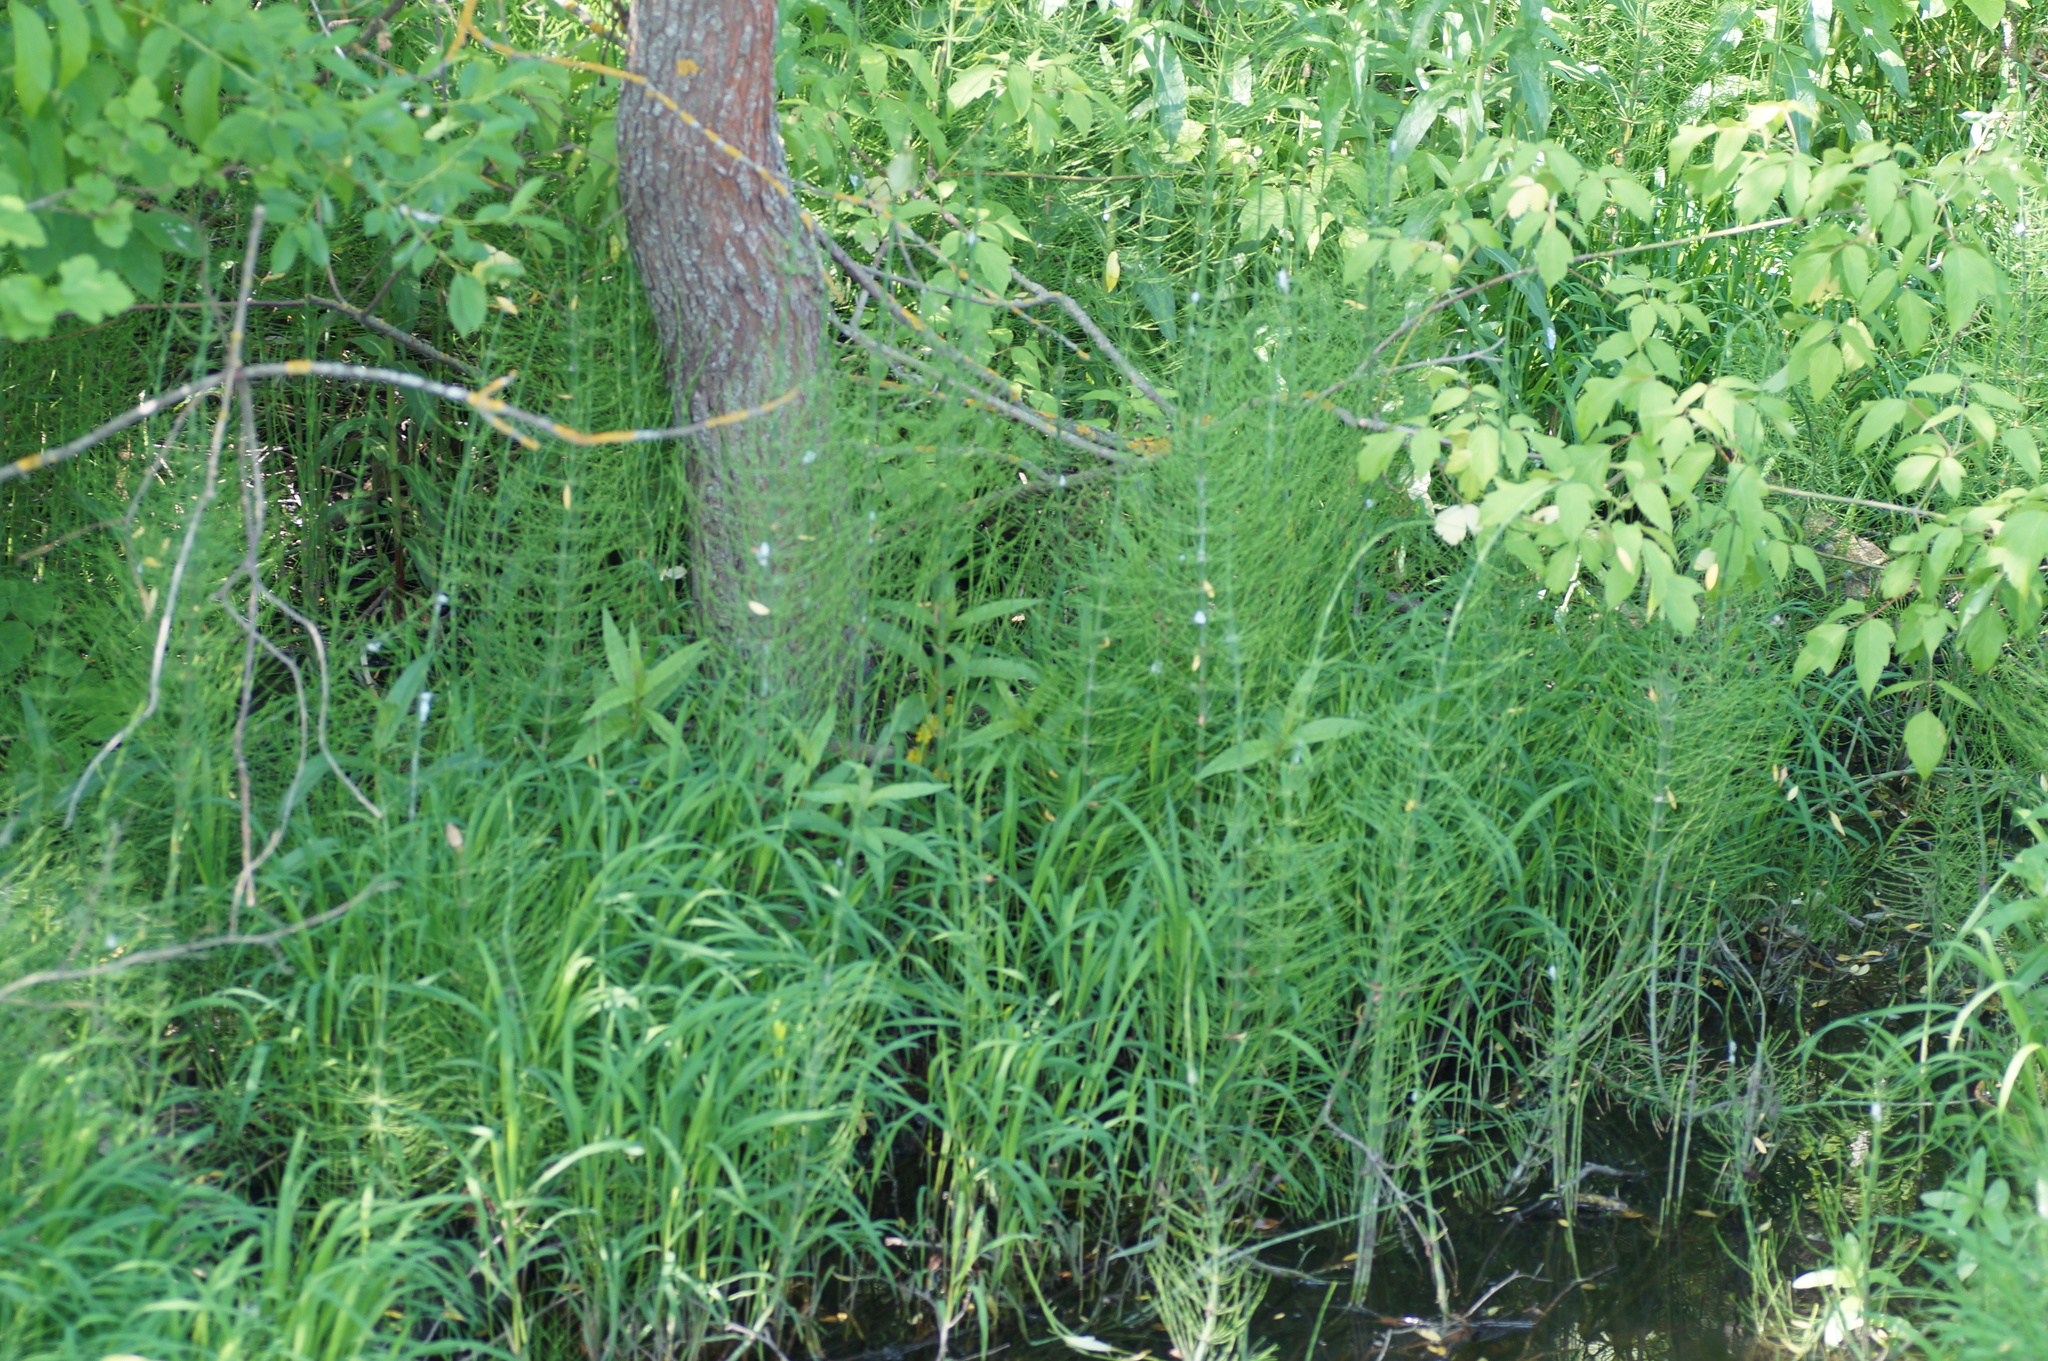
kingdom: Plantae
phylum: Tracheophyta
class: Polypodiopsida
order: Equisetales
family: Equisetaceae
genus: Equisetum
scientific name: Equisetum fluviatile
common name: Water horsetail
